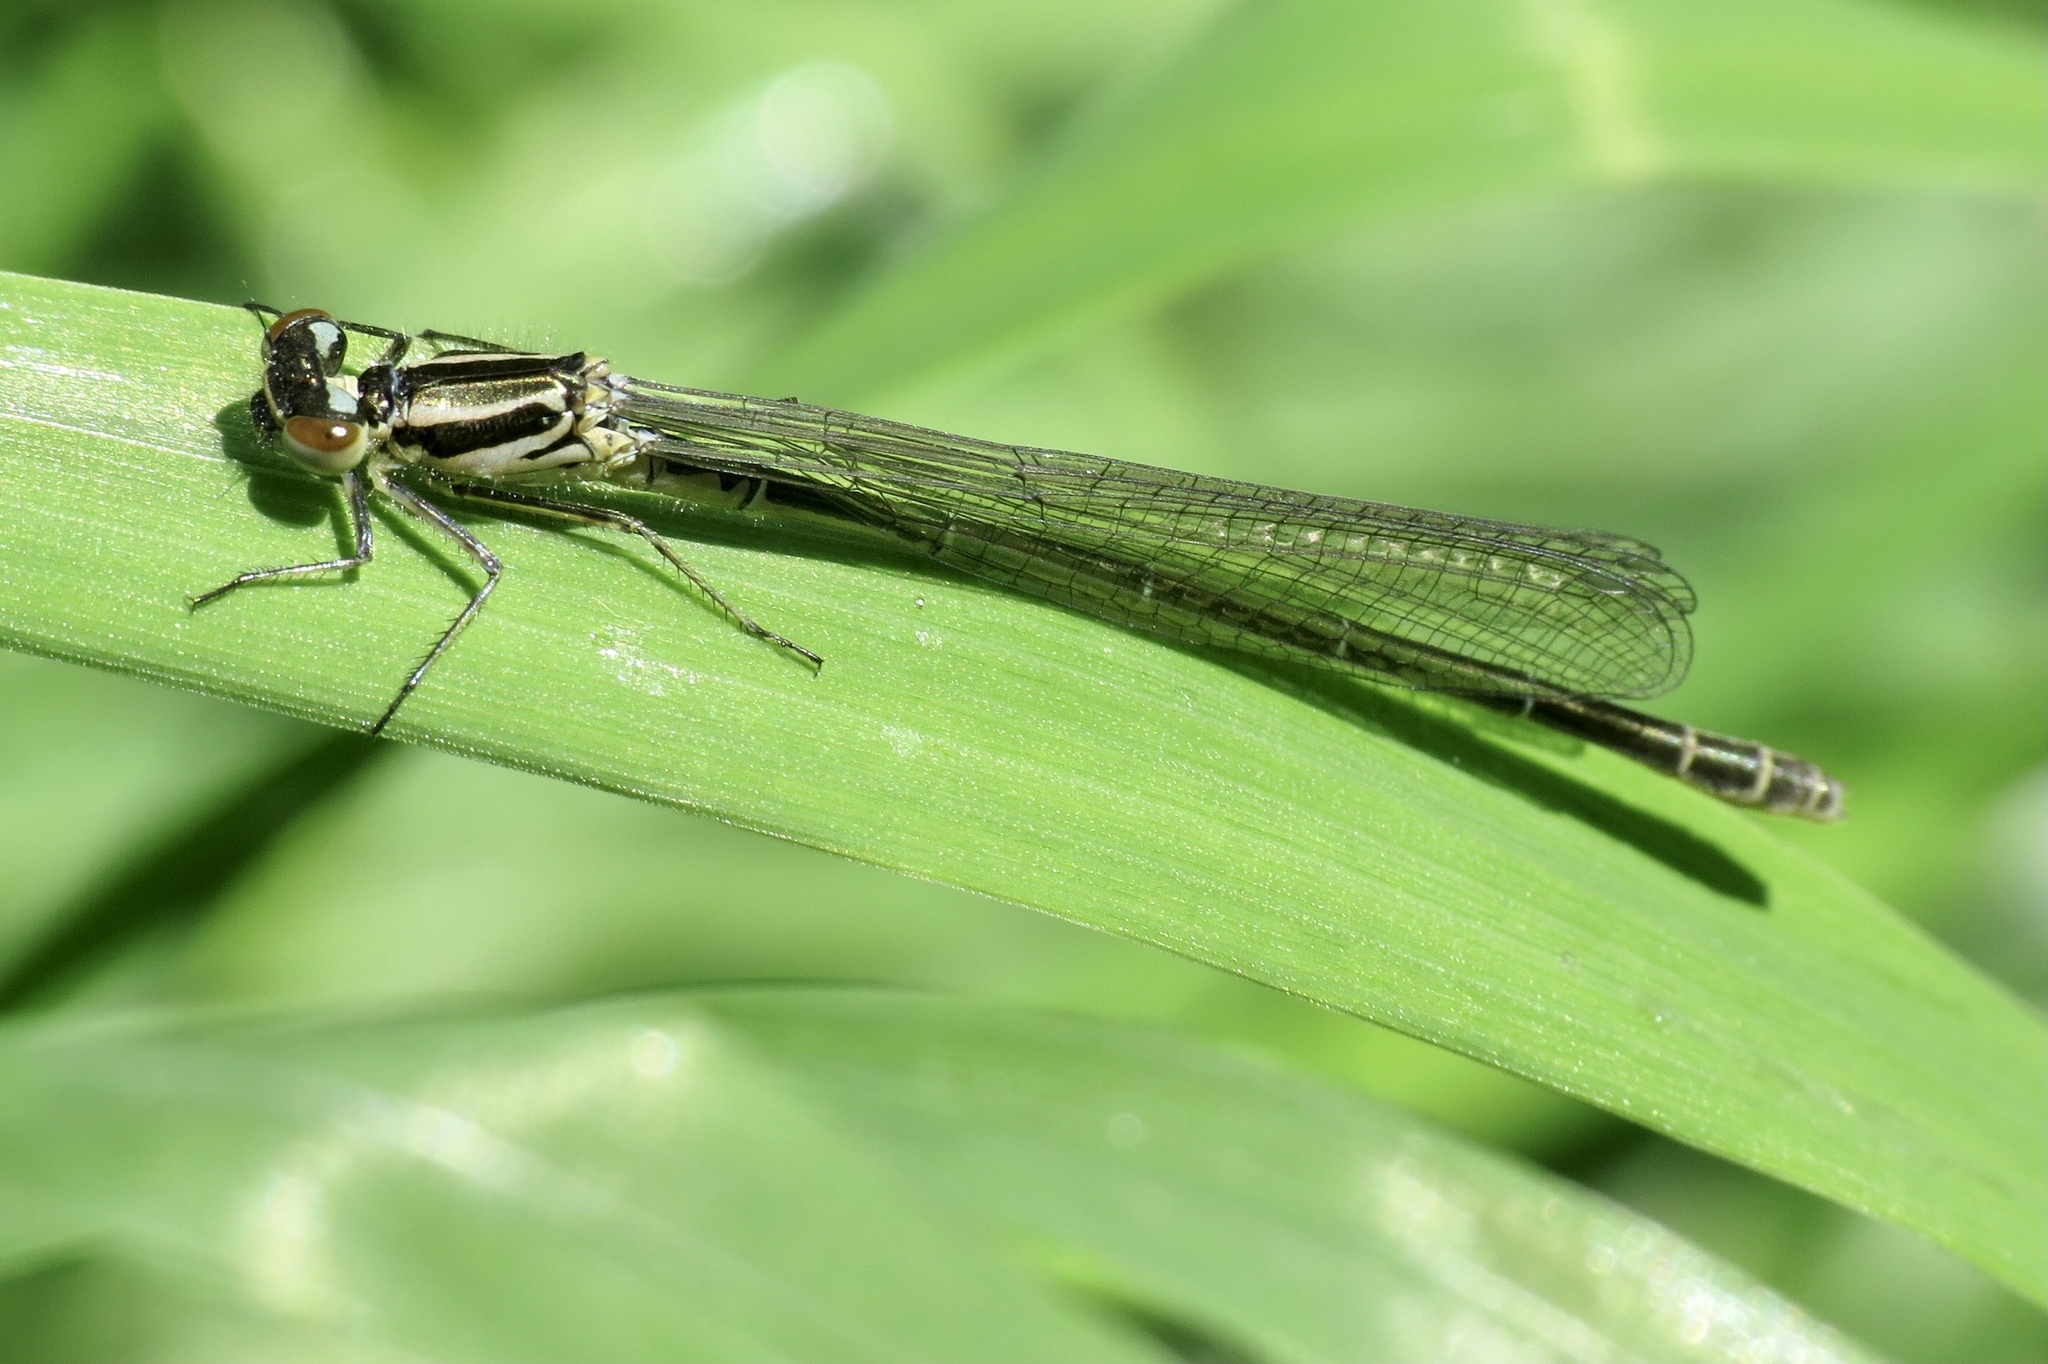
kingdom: Animalia
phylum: Arthropoda
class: Insecta
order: Odonata
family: Coenagrionidae
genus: Coenagrion
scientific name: Coenagrion puella
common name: Azure damselfly
